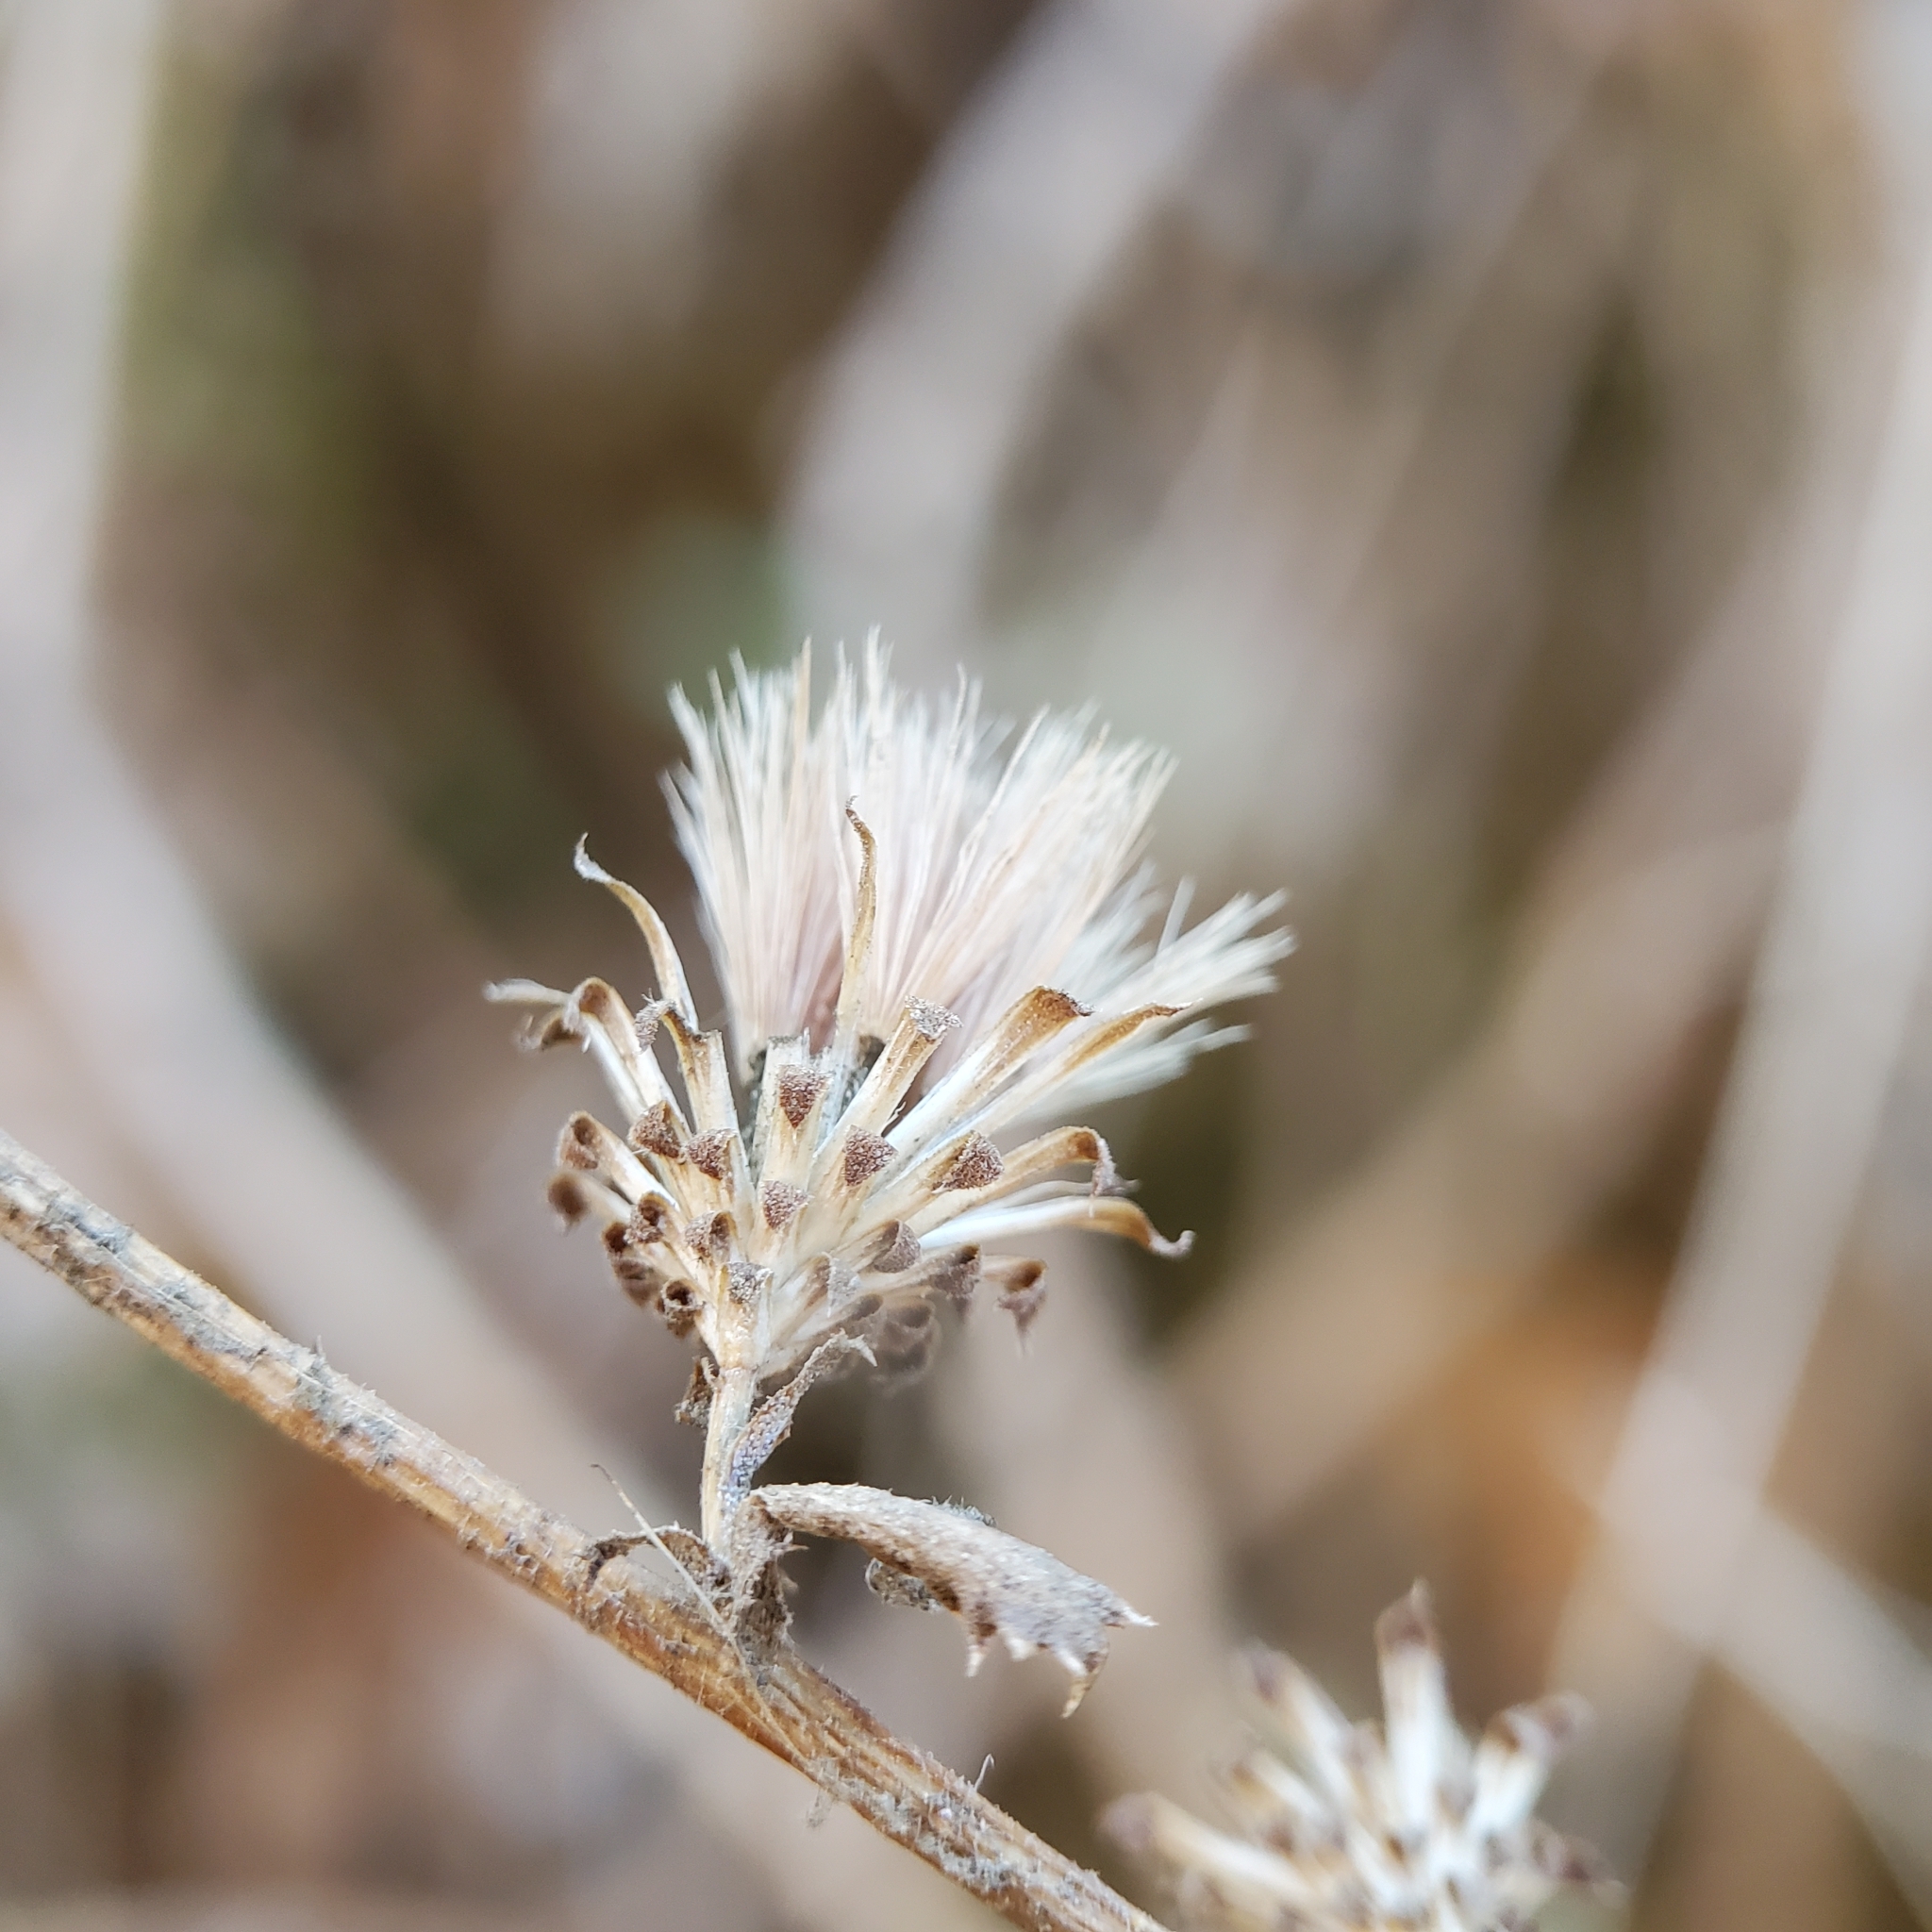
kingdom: Plantae
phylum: Tracheophyta
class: Magnoliopsida
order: Asterales
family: Asteraceae
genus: Hazardia
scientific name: Hazardia squarrosa
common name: Saw-tooth goldenbush
